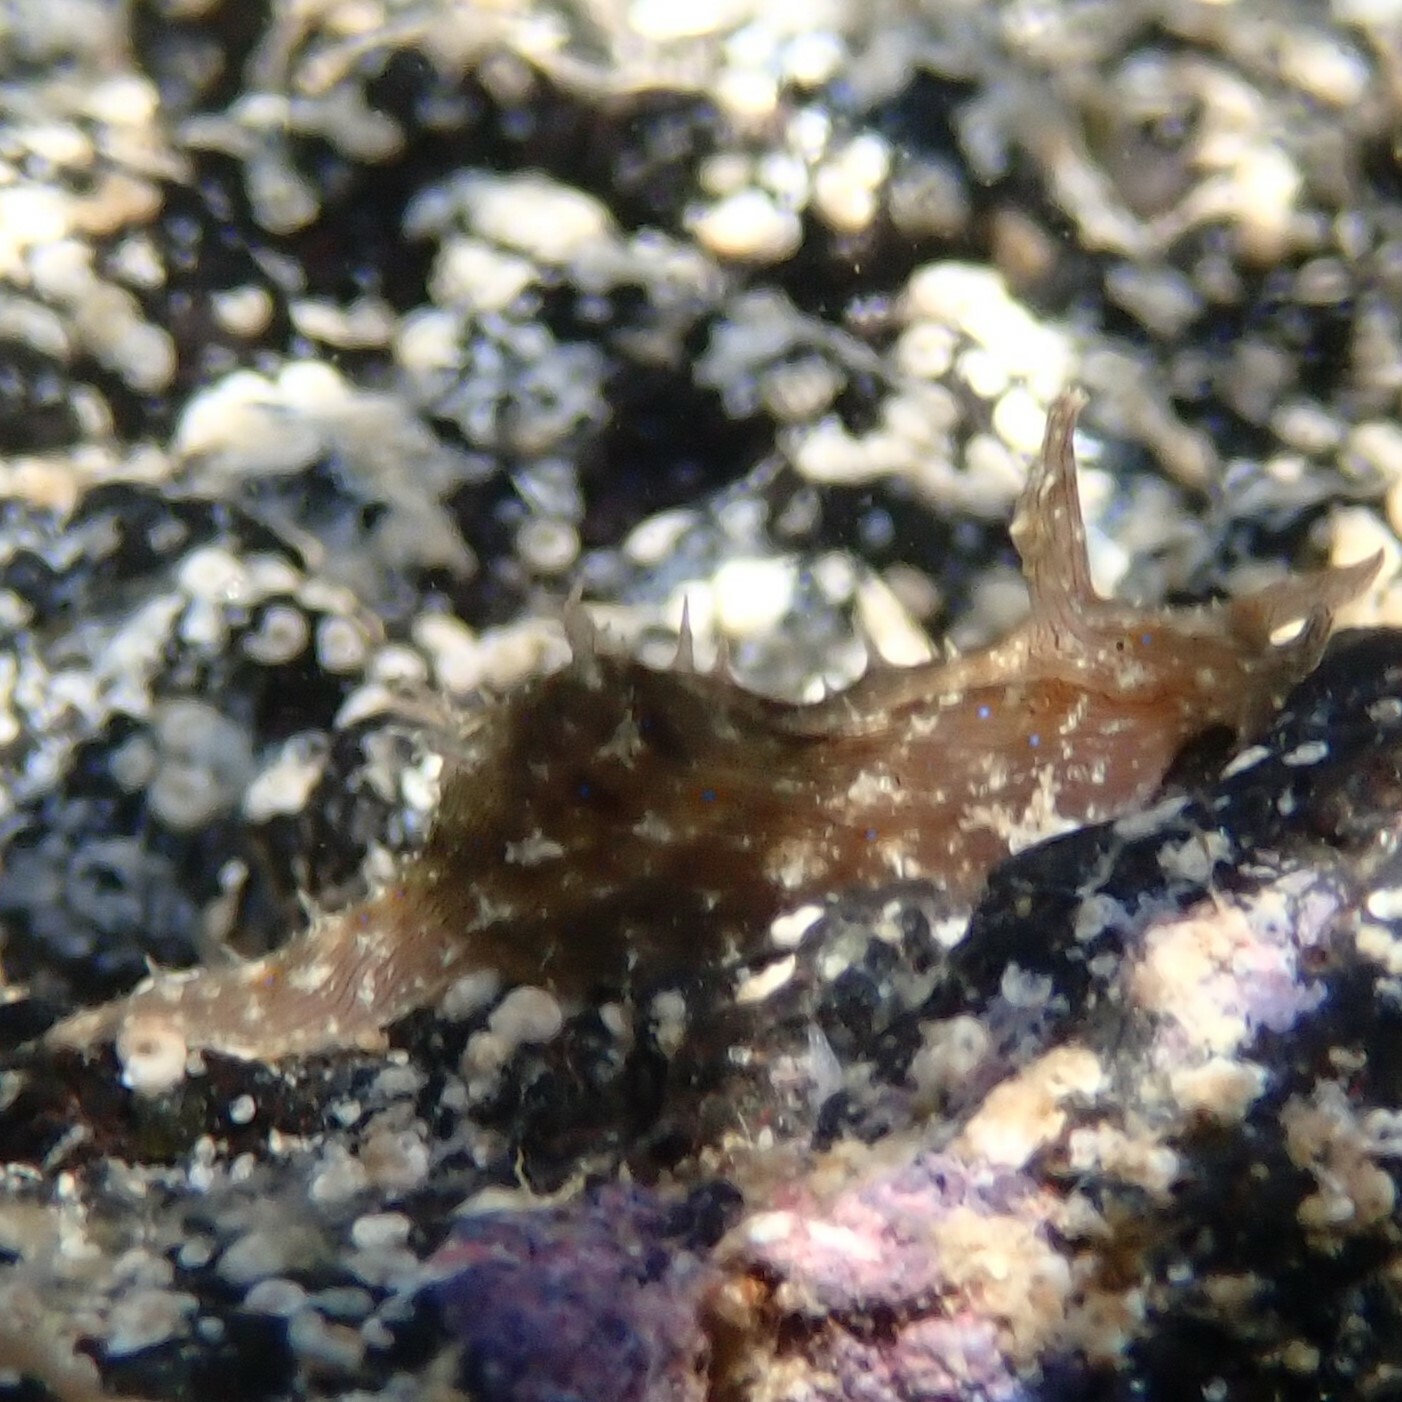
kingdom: Animalia
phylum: Mollusca
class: Gastropoda
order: Aplysiida
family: Aplysiidae
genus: Stylocheilus
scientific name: Stylocheilus striatus
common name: Striated seahare
